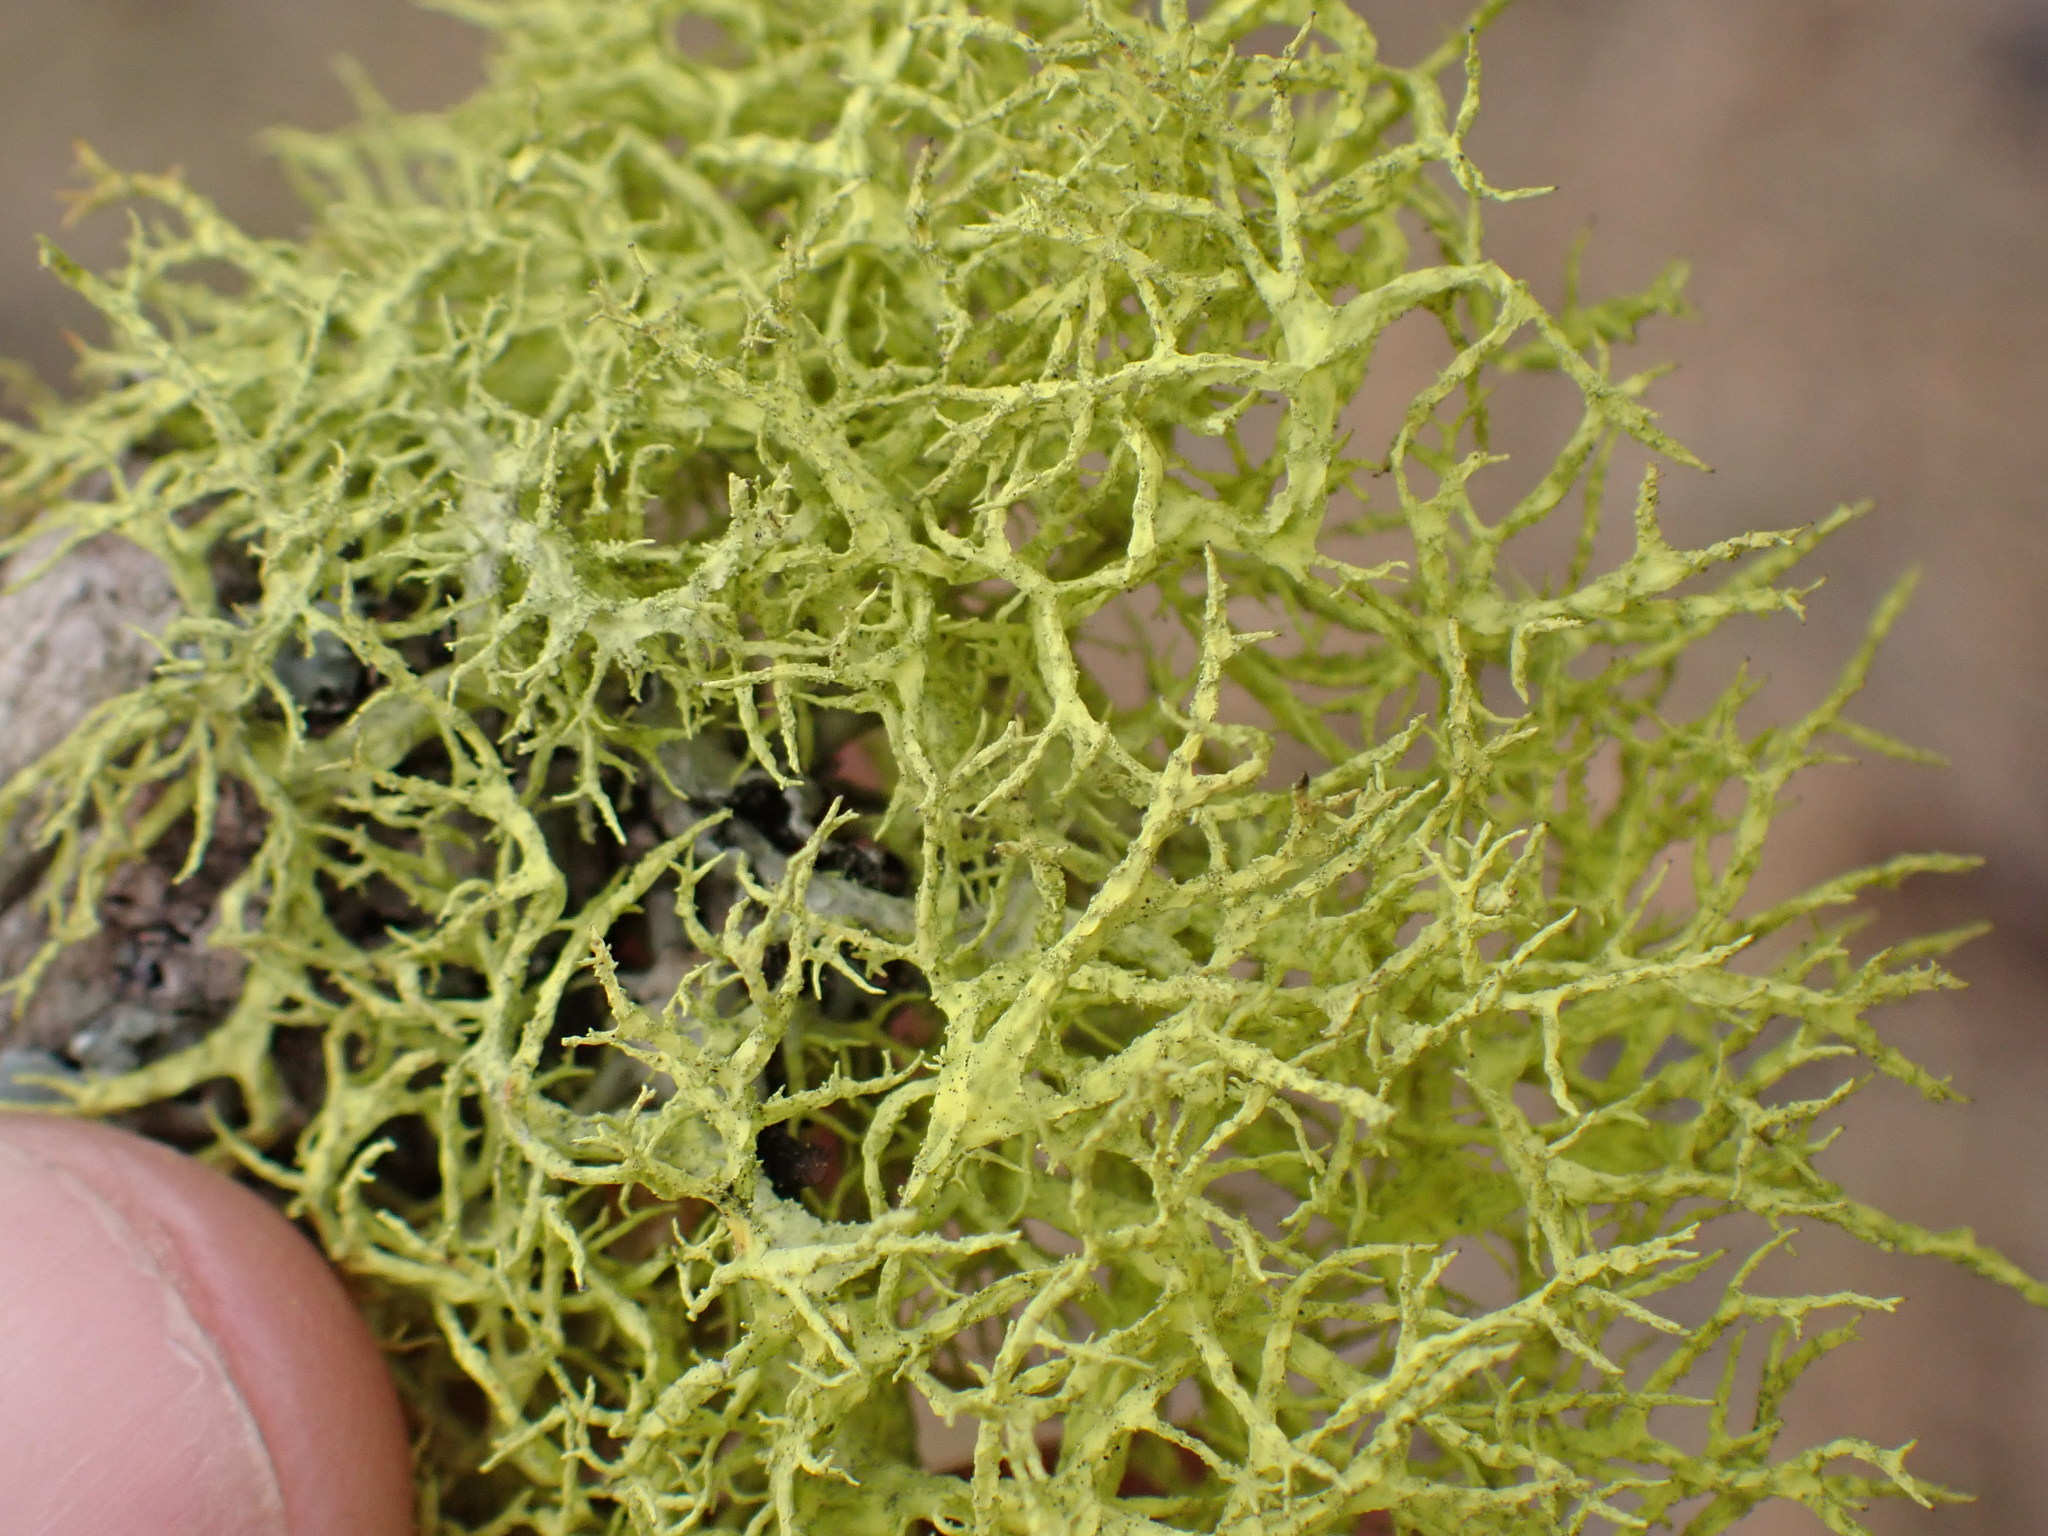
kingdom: Fungi
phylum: Ascomycota
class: Lecanoromycetes
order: Lecanorales
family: Parmeliaceae
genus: Letharia
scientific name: Letharia vulpina
